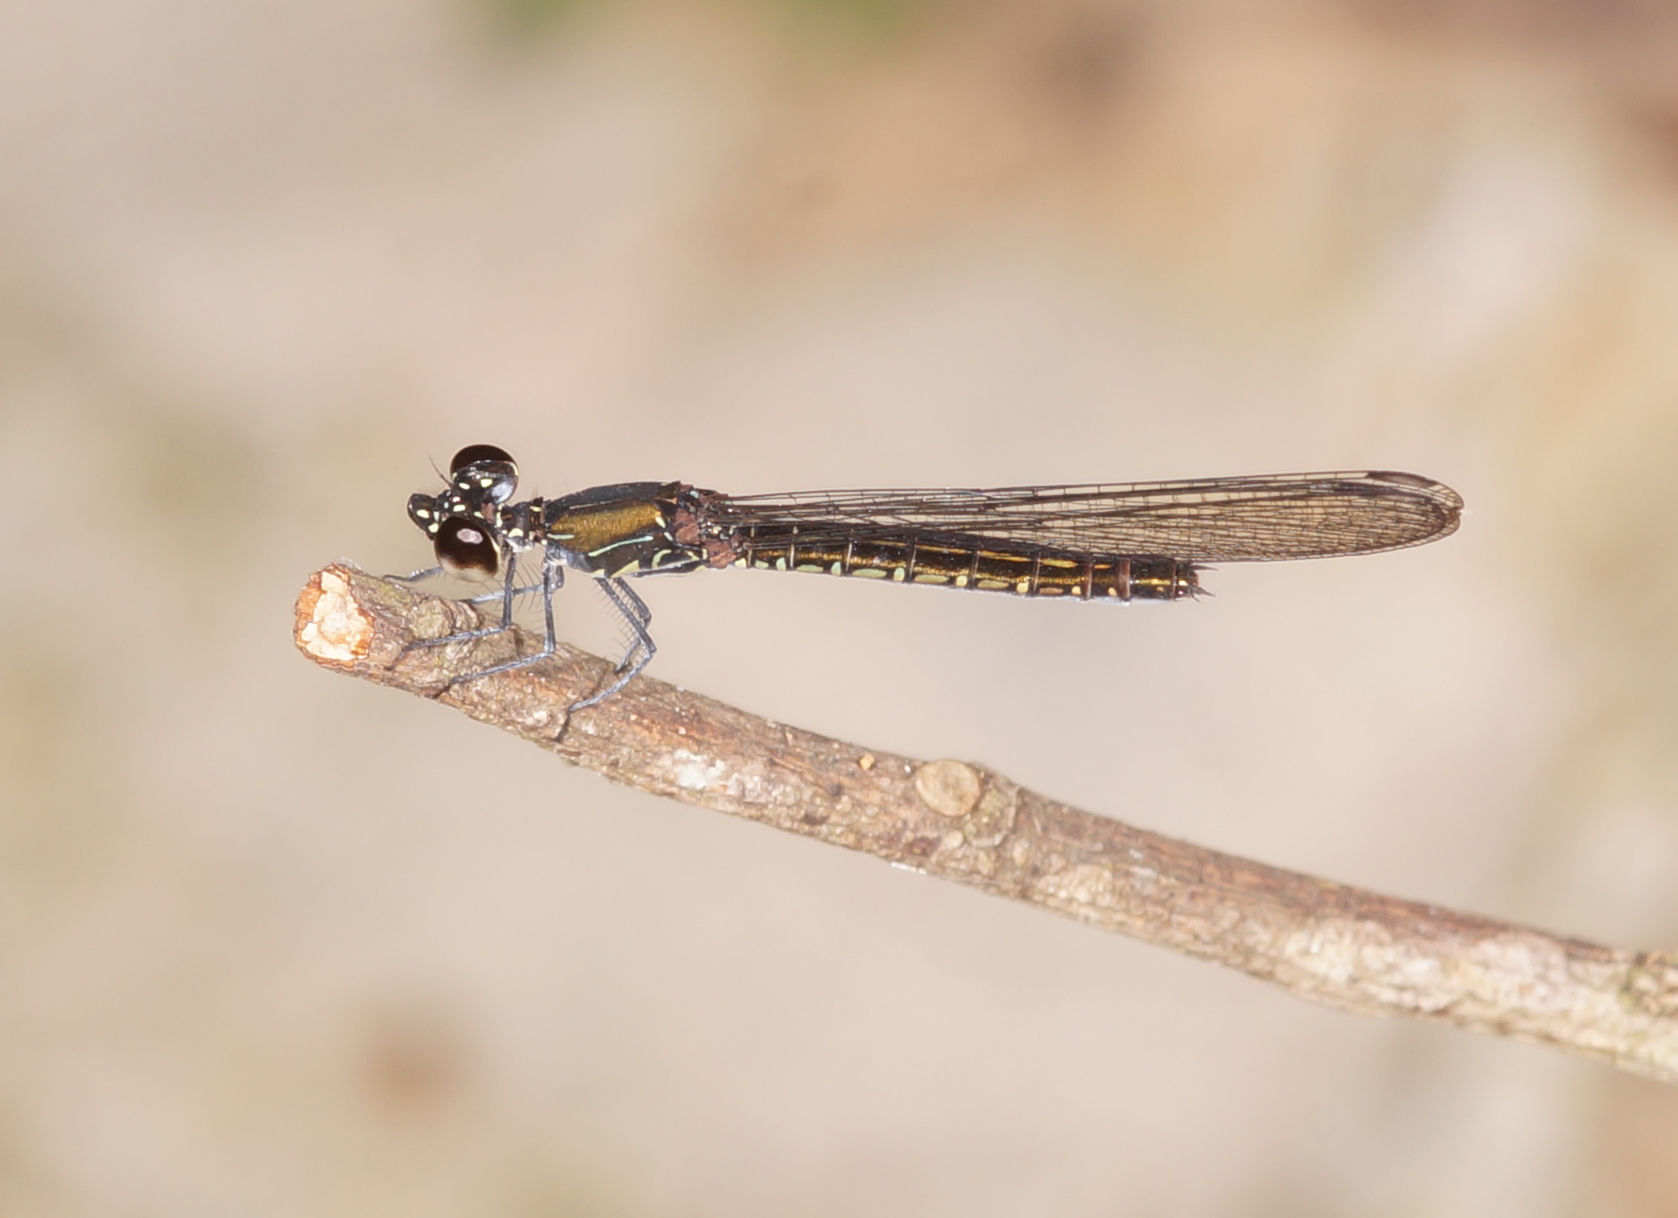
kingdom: Animalia
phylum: Arthropoda
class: Insecta
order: Odonata
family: Chlorocyphidae
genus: Libellago
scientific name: Libellago hyalina
